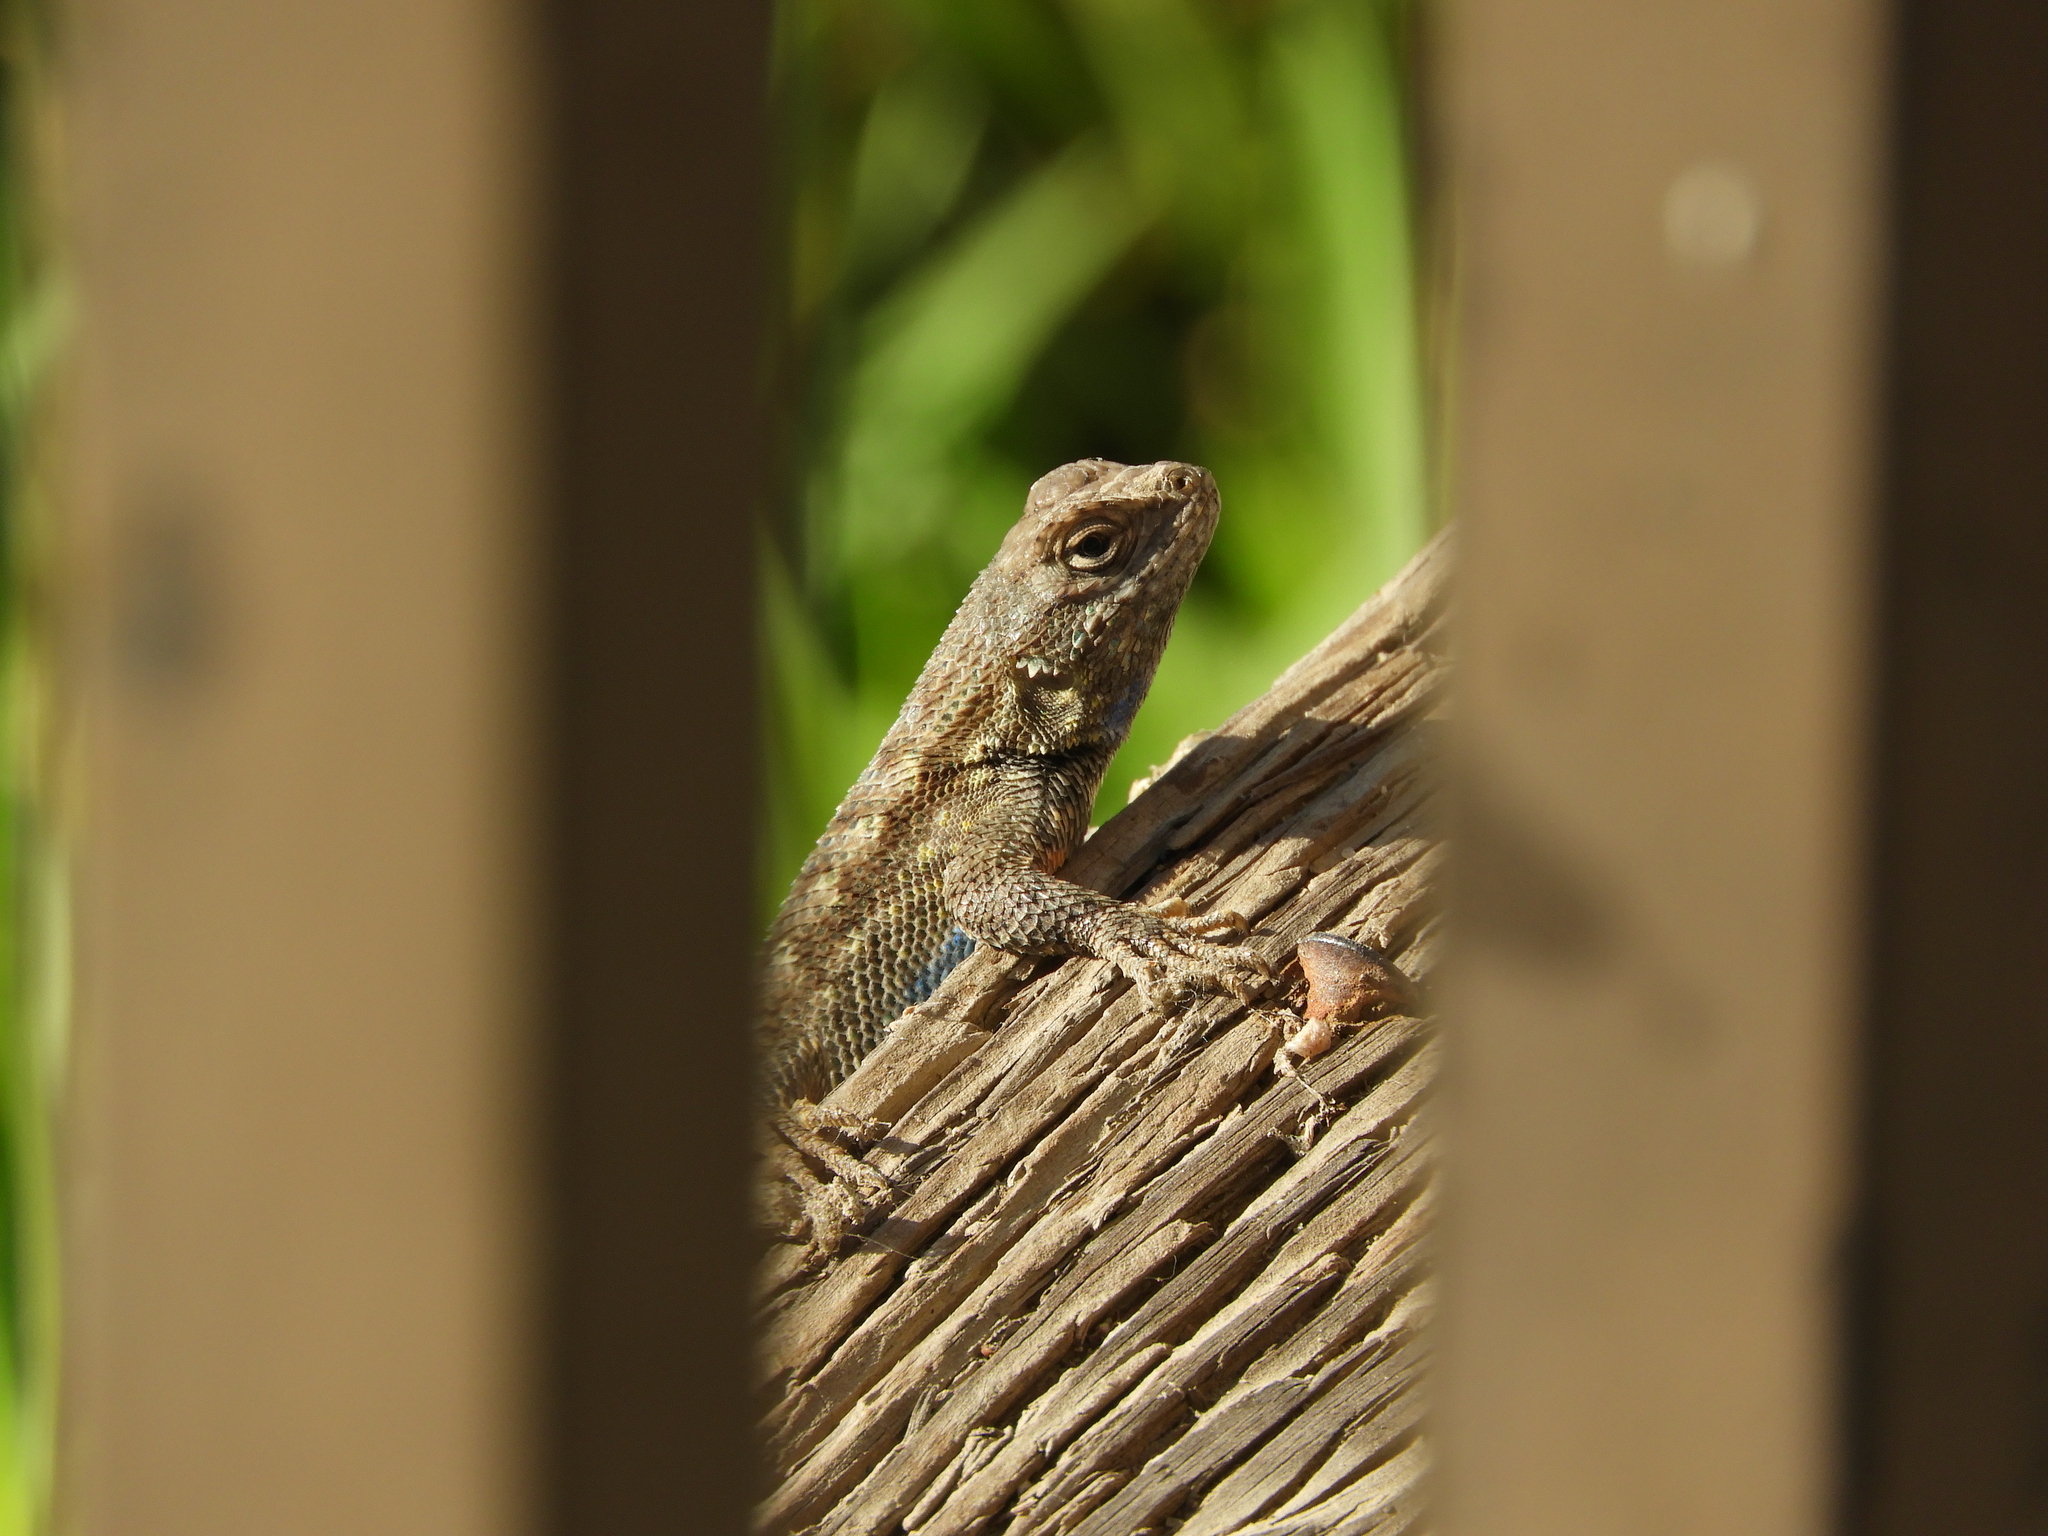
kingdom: Animalia
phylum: Chordata
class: Squamata
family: Phrynosomatidae
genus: Sceloporus
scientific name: Sceloporus occidentalis
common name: Western fence lizard
